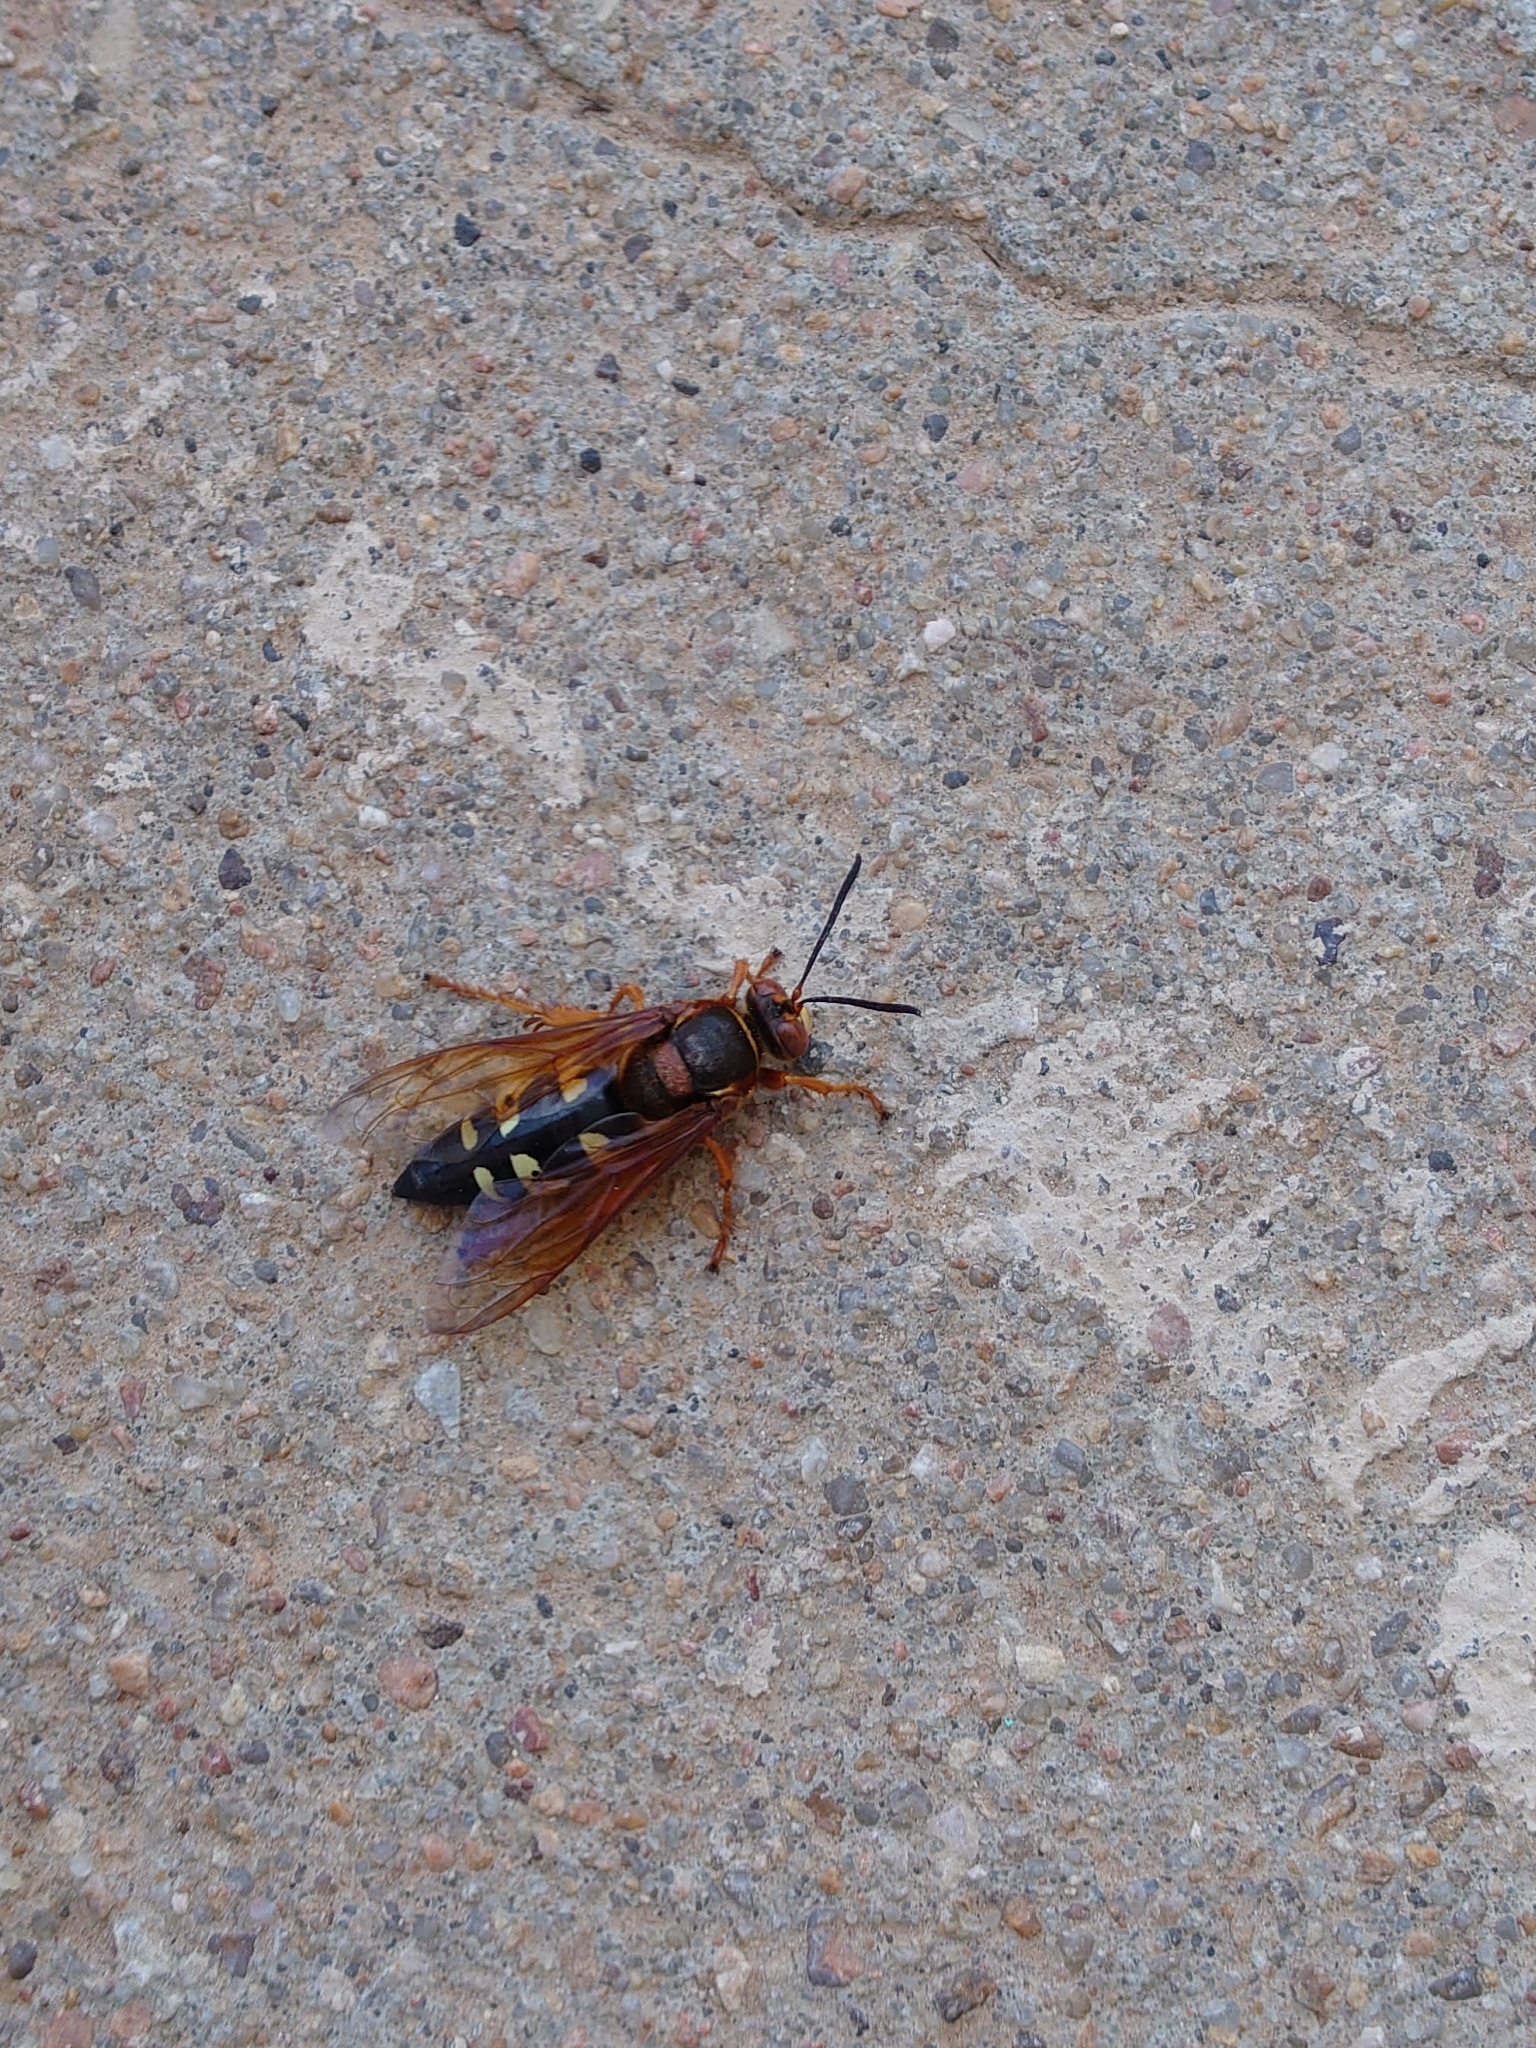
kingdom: Animalia
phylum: Arthropoda
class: Insecta
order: Hymenoptera
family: Crabronidae
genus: Sphecius
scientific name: Sphecius speciosus
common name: Cicada killer
